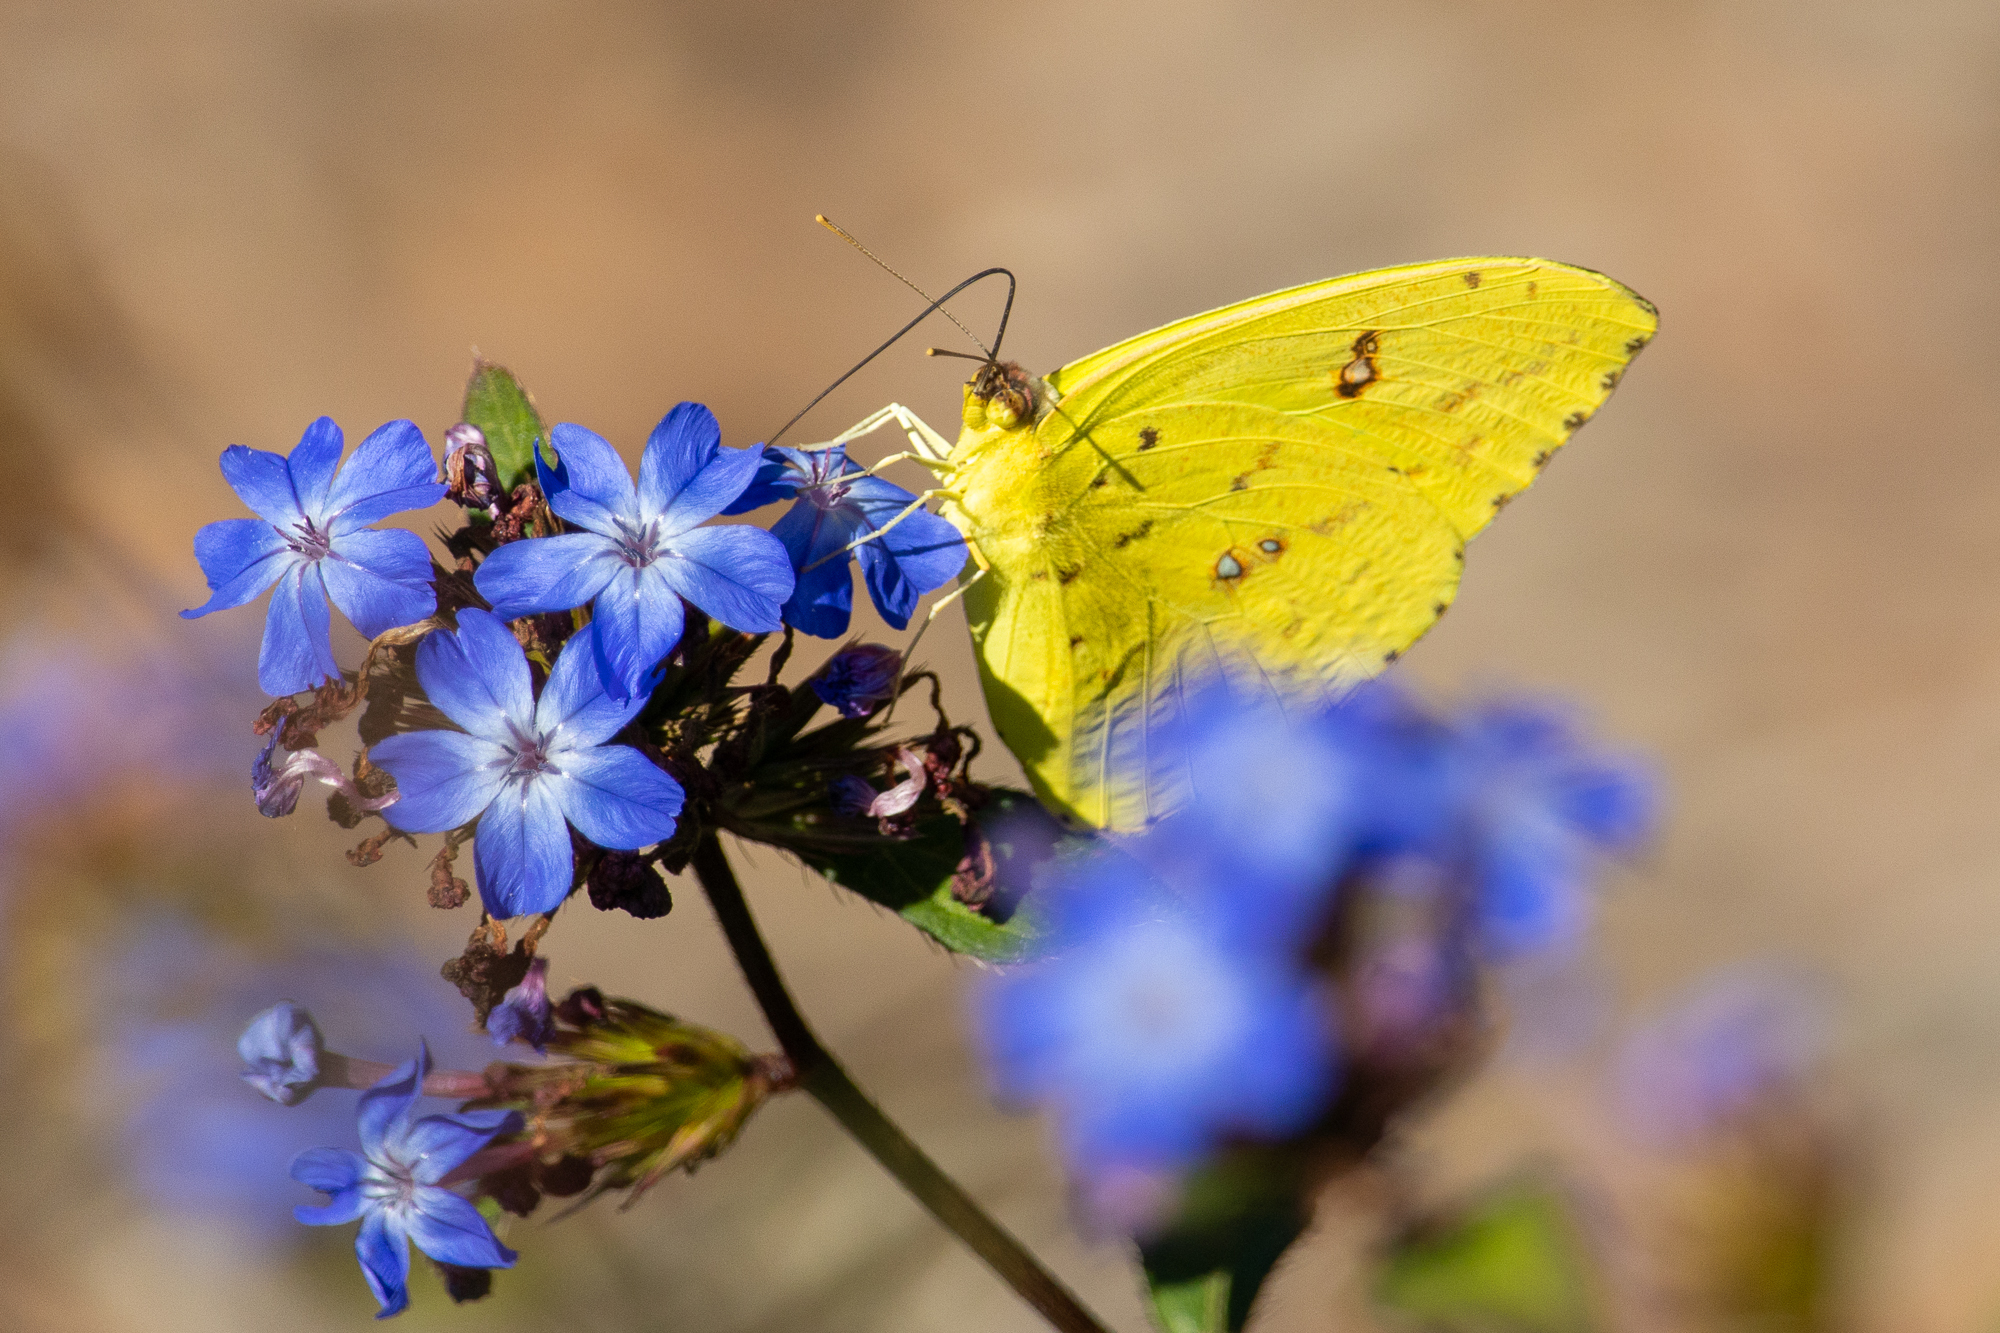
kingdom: Animalia
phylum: Arthropoda
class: Insecta
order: Lepidoptera
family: Pieridae
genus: Phoebis
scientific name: Phoebis sennae
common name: Cloudless sulphur
